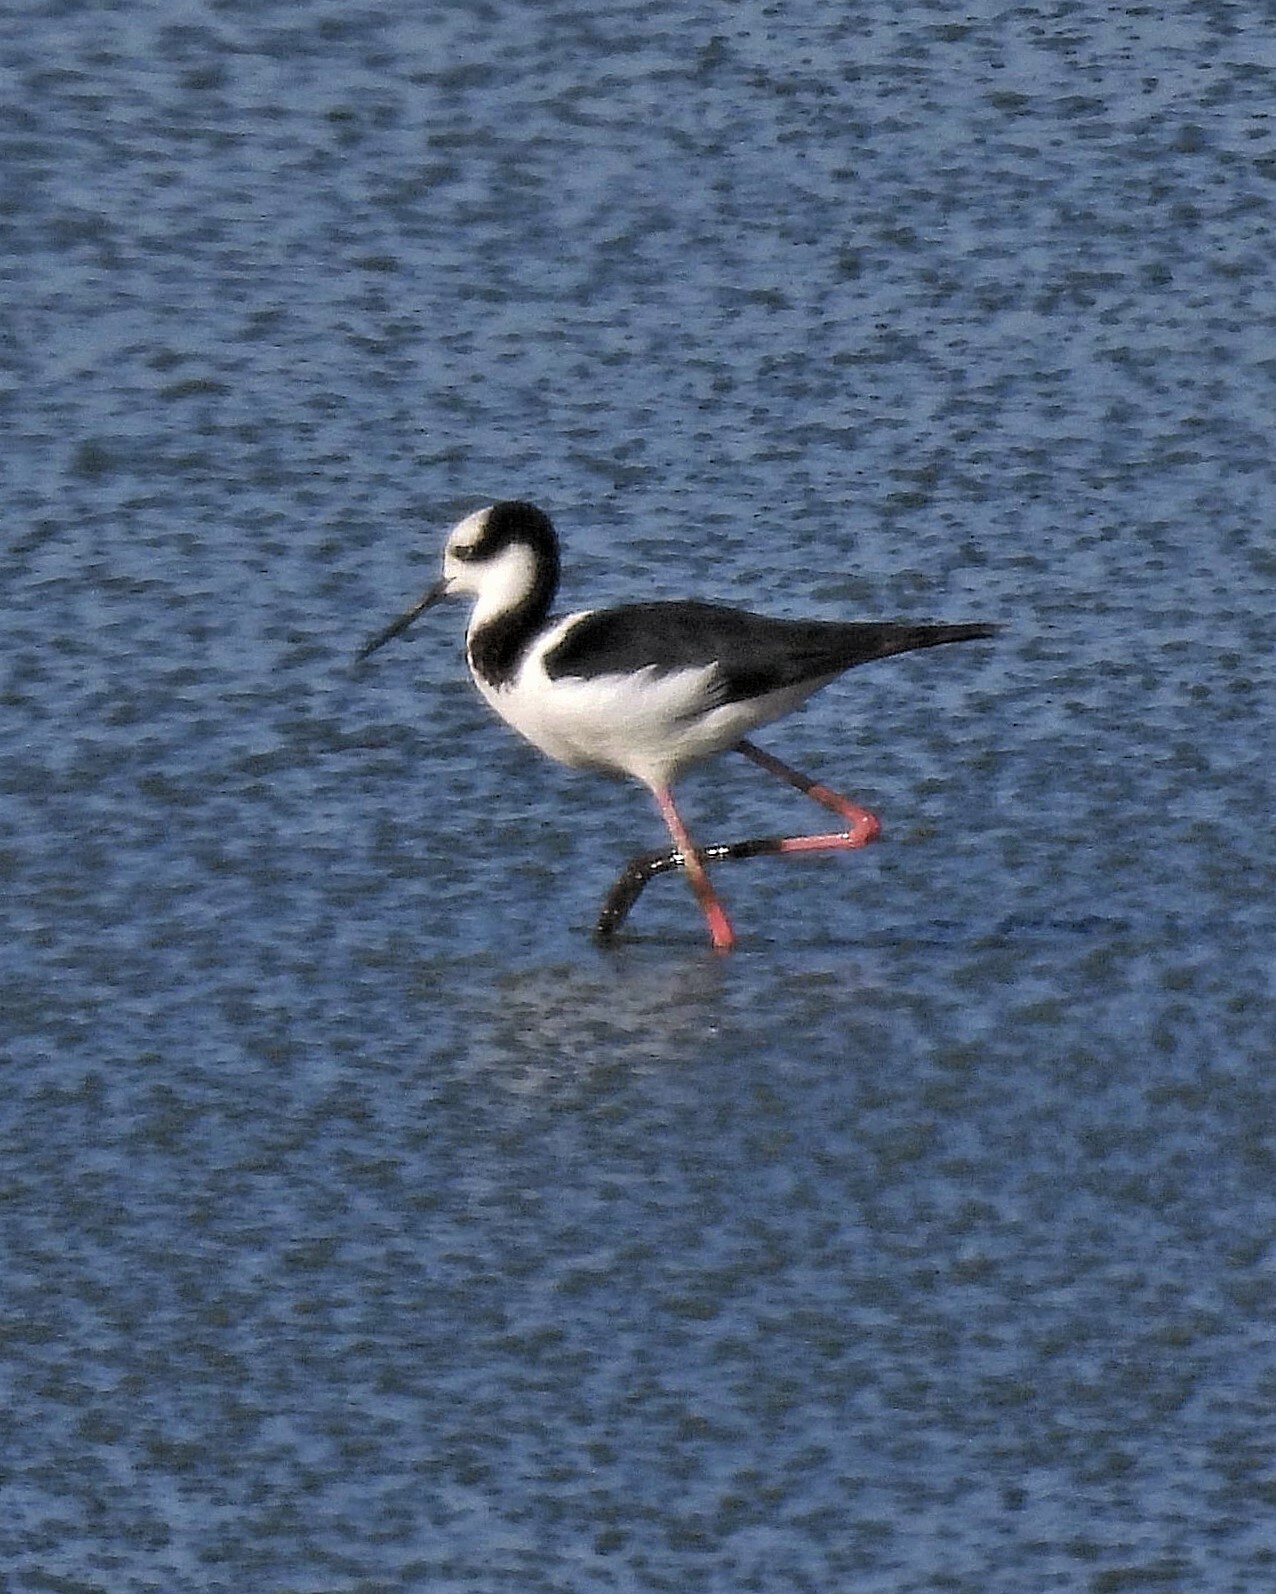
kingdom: Animalia
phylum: Chordata
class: Aves
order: Charadriiformes
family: Recurvirostridae
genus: Himantopus
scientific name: Himantopus mexicanus
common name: Black-necked stilt
